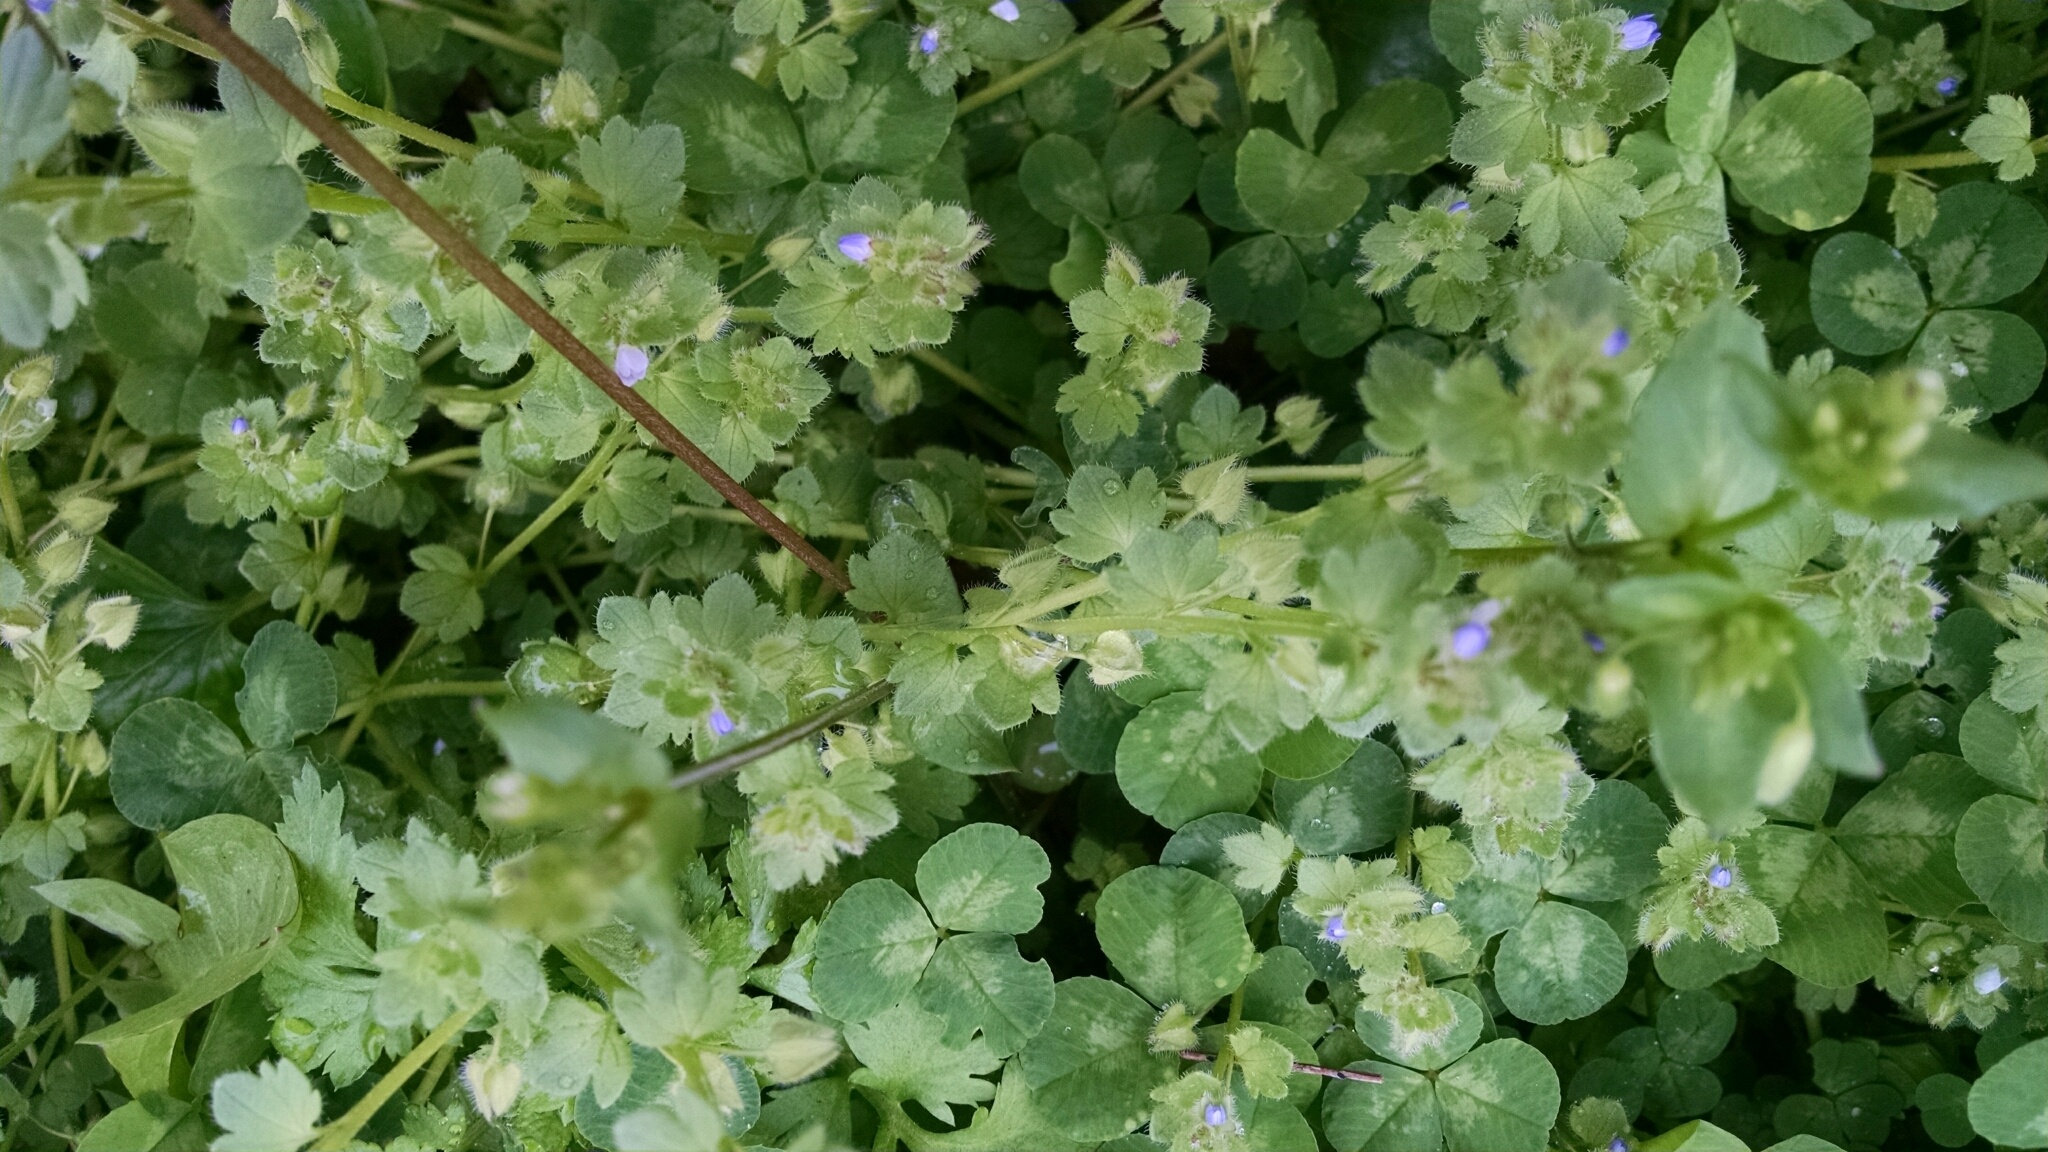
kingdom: Plantae
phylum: Tracheophyta
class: Magnoliopsida
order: Lamiales
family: Plantaginaceae
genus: Veronica
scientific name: Veronica hederifolia
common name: Ivy-leaved speedwell
